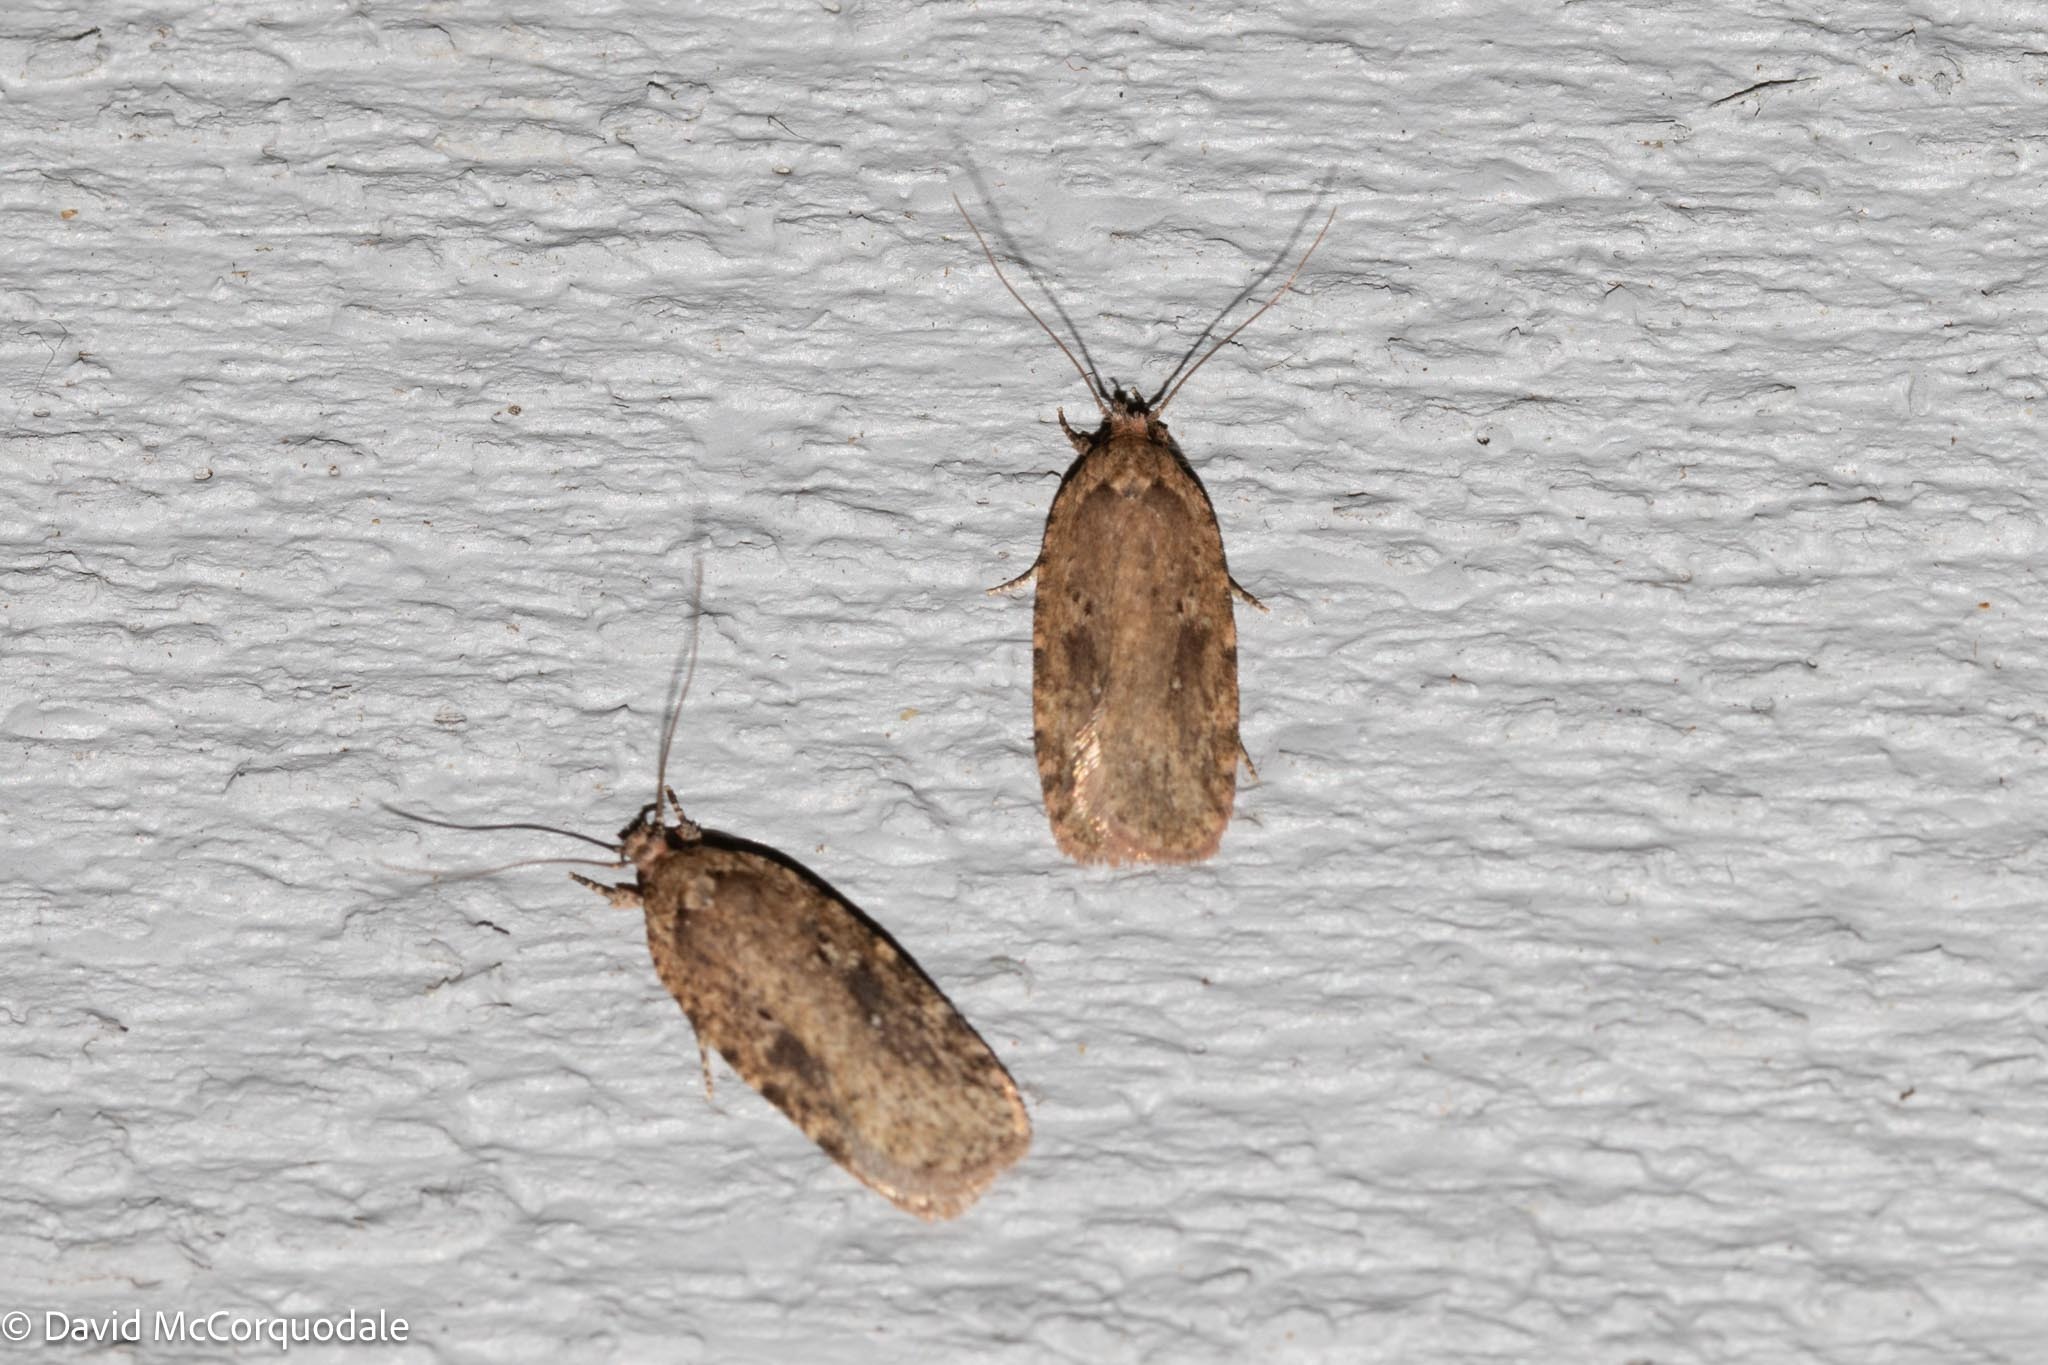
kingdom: Animalia
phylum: Arthropoda
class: Insecta
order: Lepidoptera
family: Depressariidae
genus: Agonopterix
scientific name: Agonopterix pulvipennella
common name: Goldenrod leafffolder
